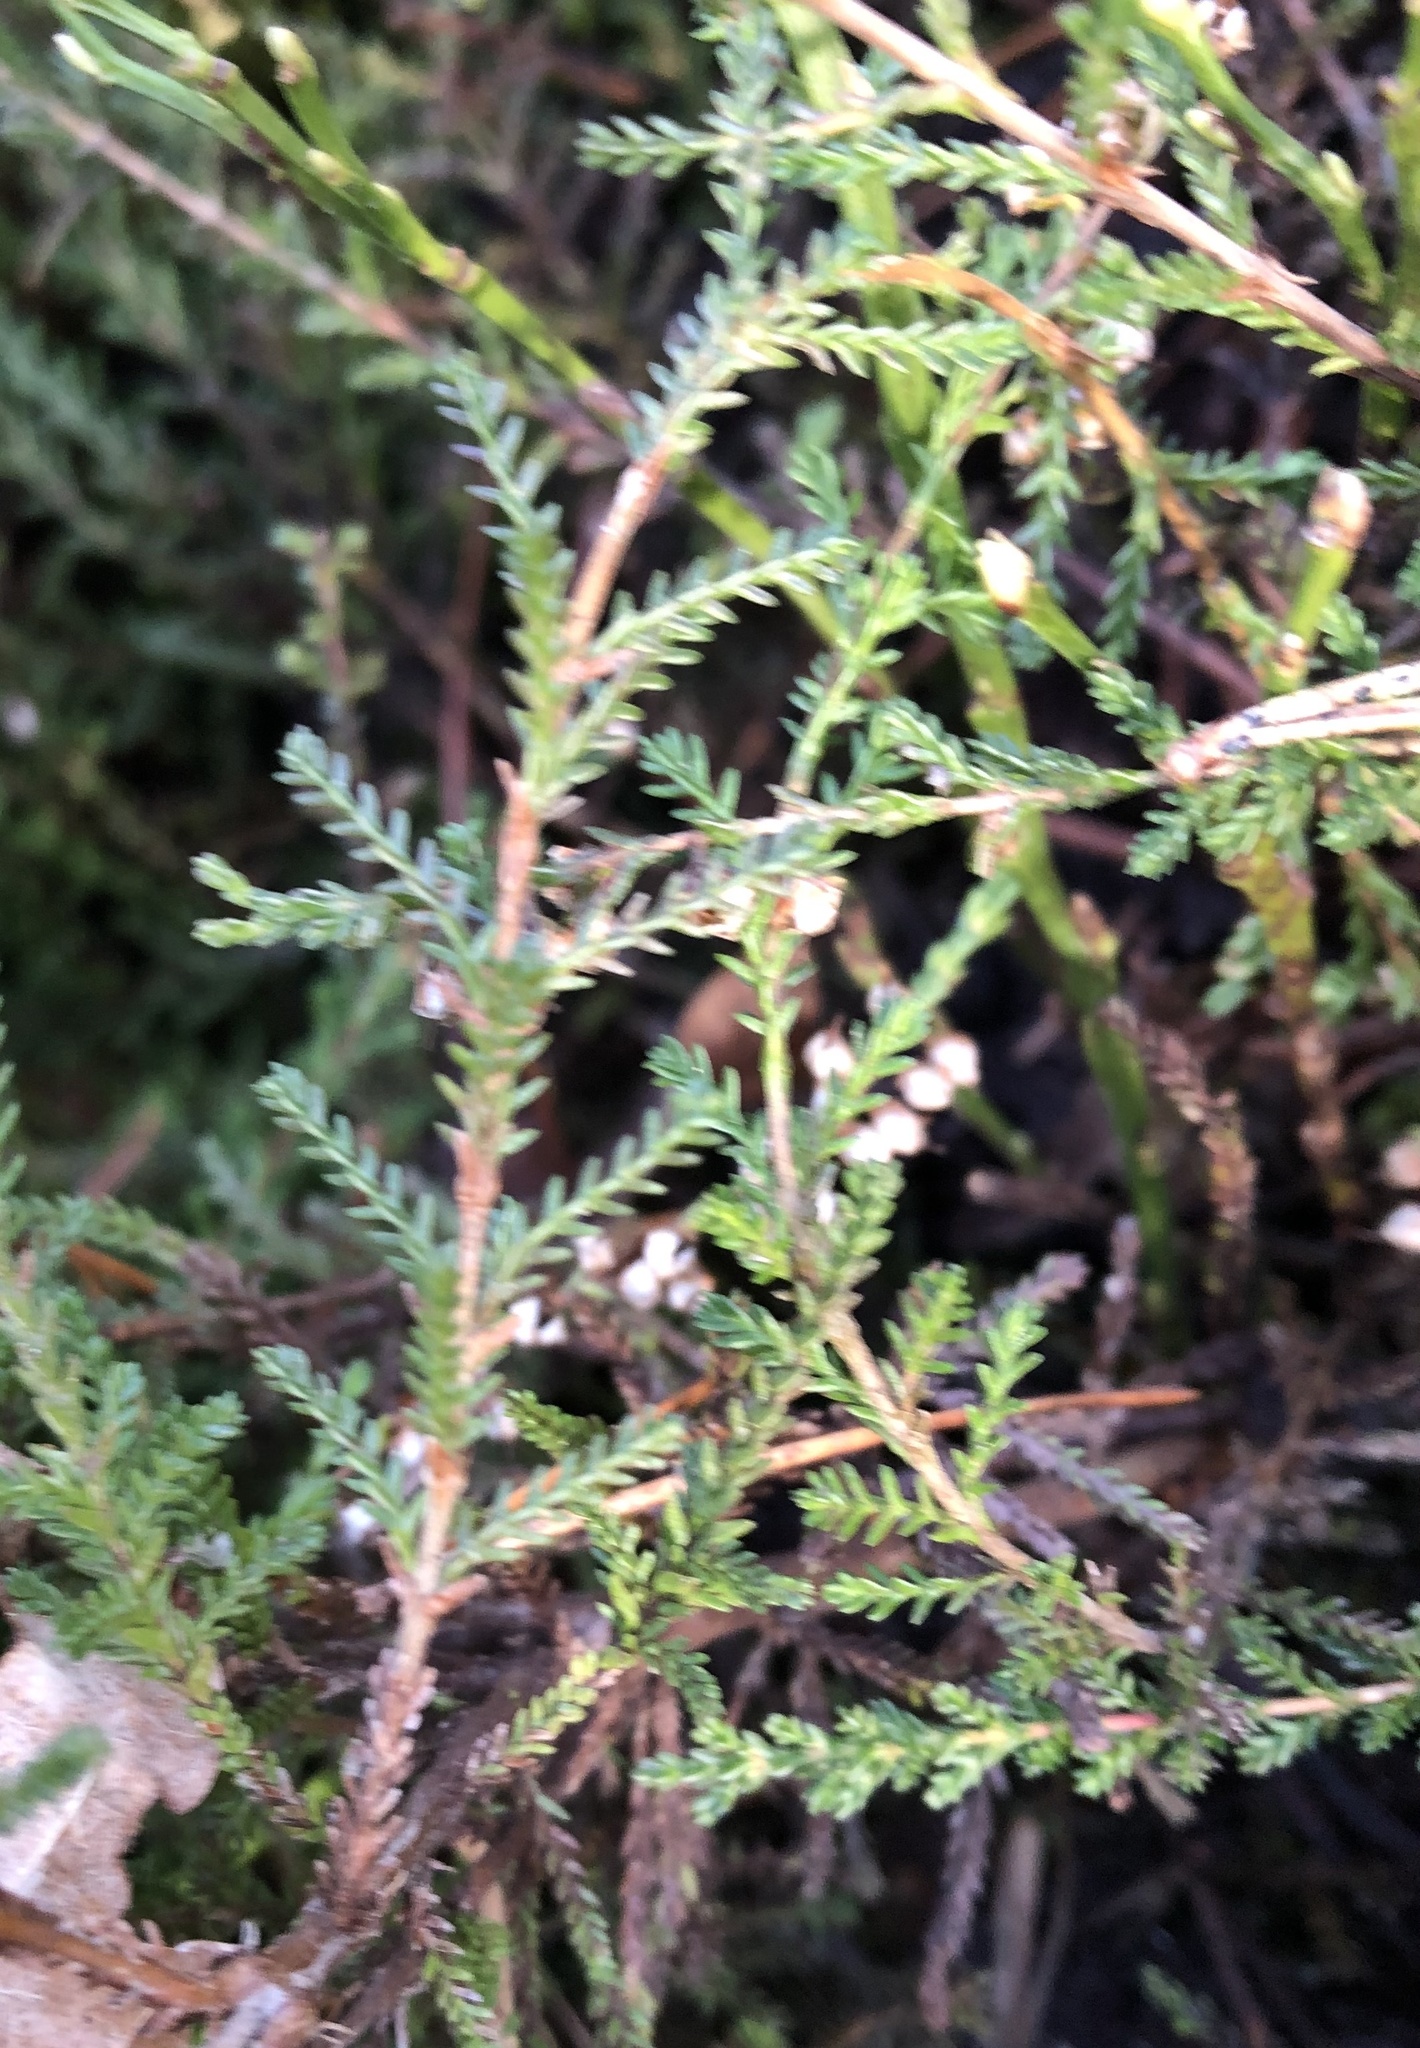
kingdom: Plantae
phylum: Tracheophyta
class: Magnoliopsida
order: Ericales
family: Ericaceae
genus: Calluna
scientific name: Calluna vulgaris
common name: Heather
